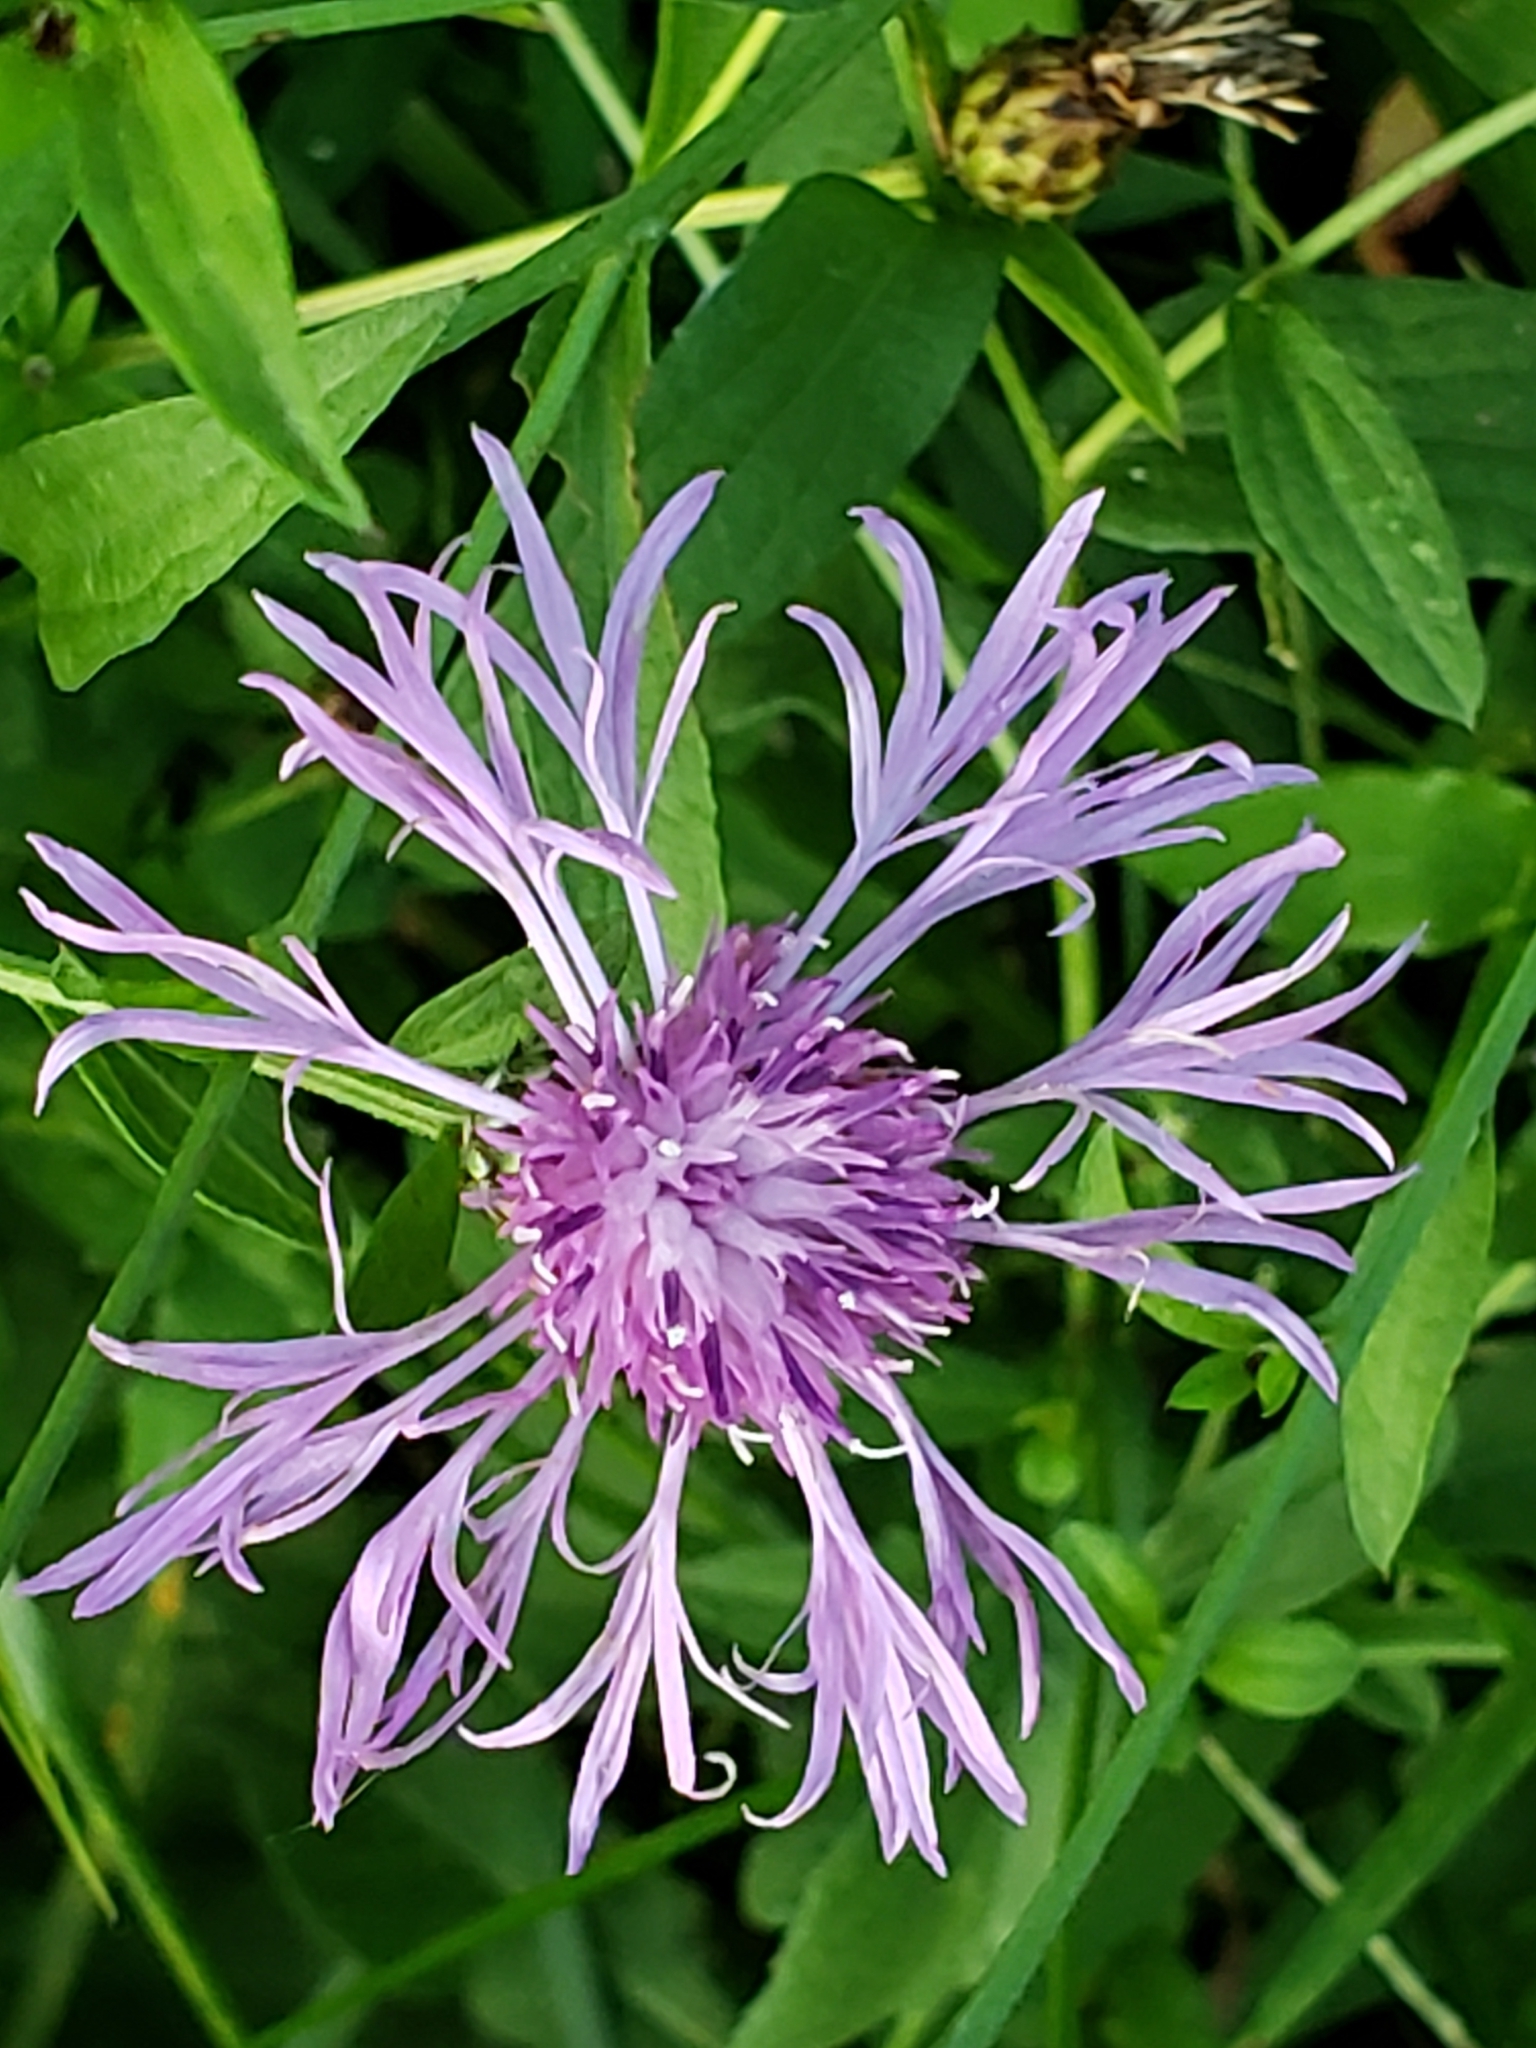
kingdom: Plantae
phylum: Tracheophyta
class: Magnoliopsida
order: Asterales
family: Asteraceae
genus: Centaurea
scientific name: Centaurea nigrescens
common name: Tyrol knapweed
